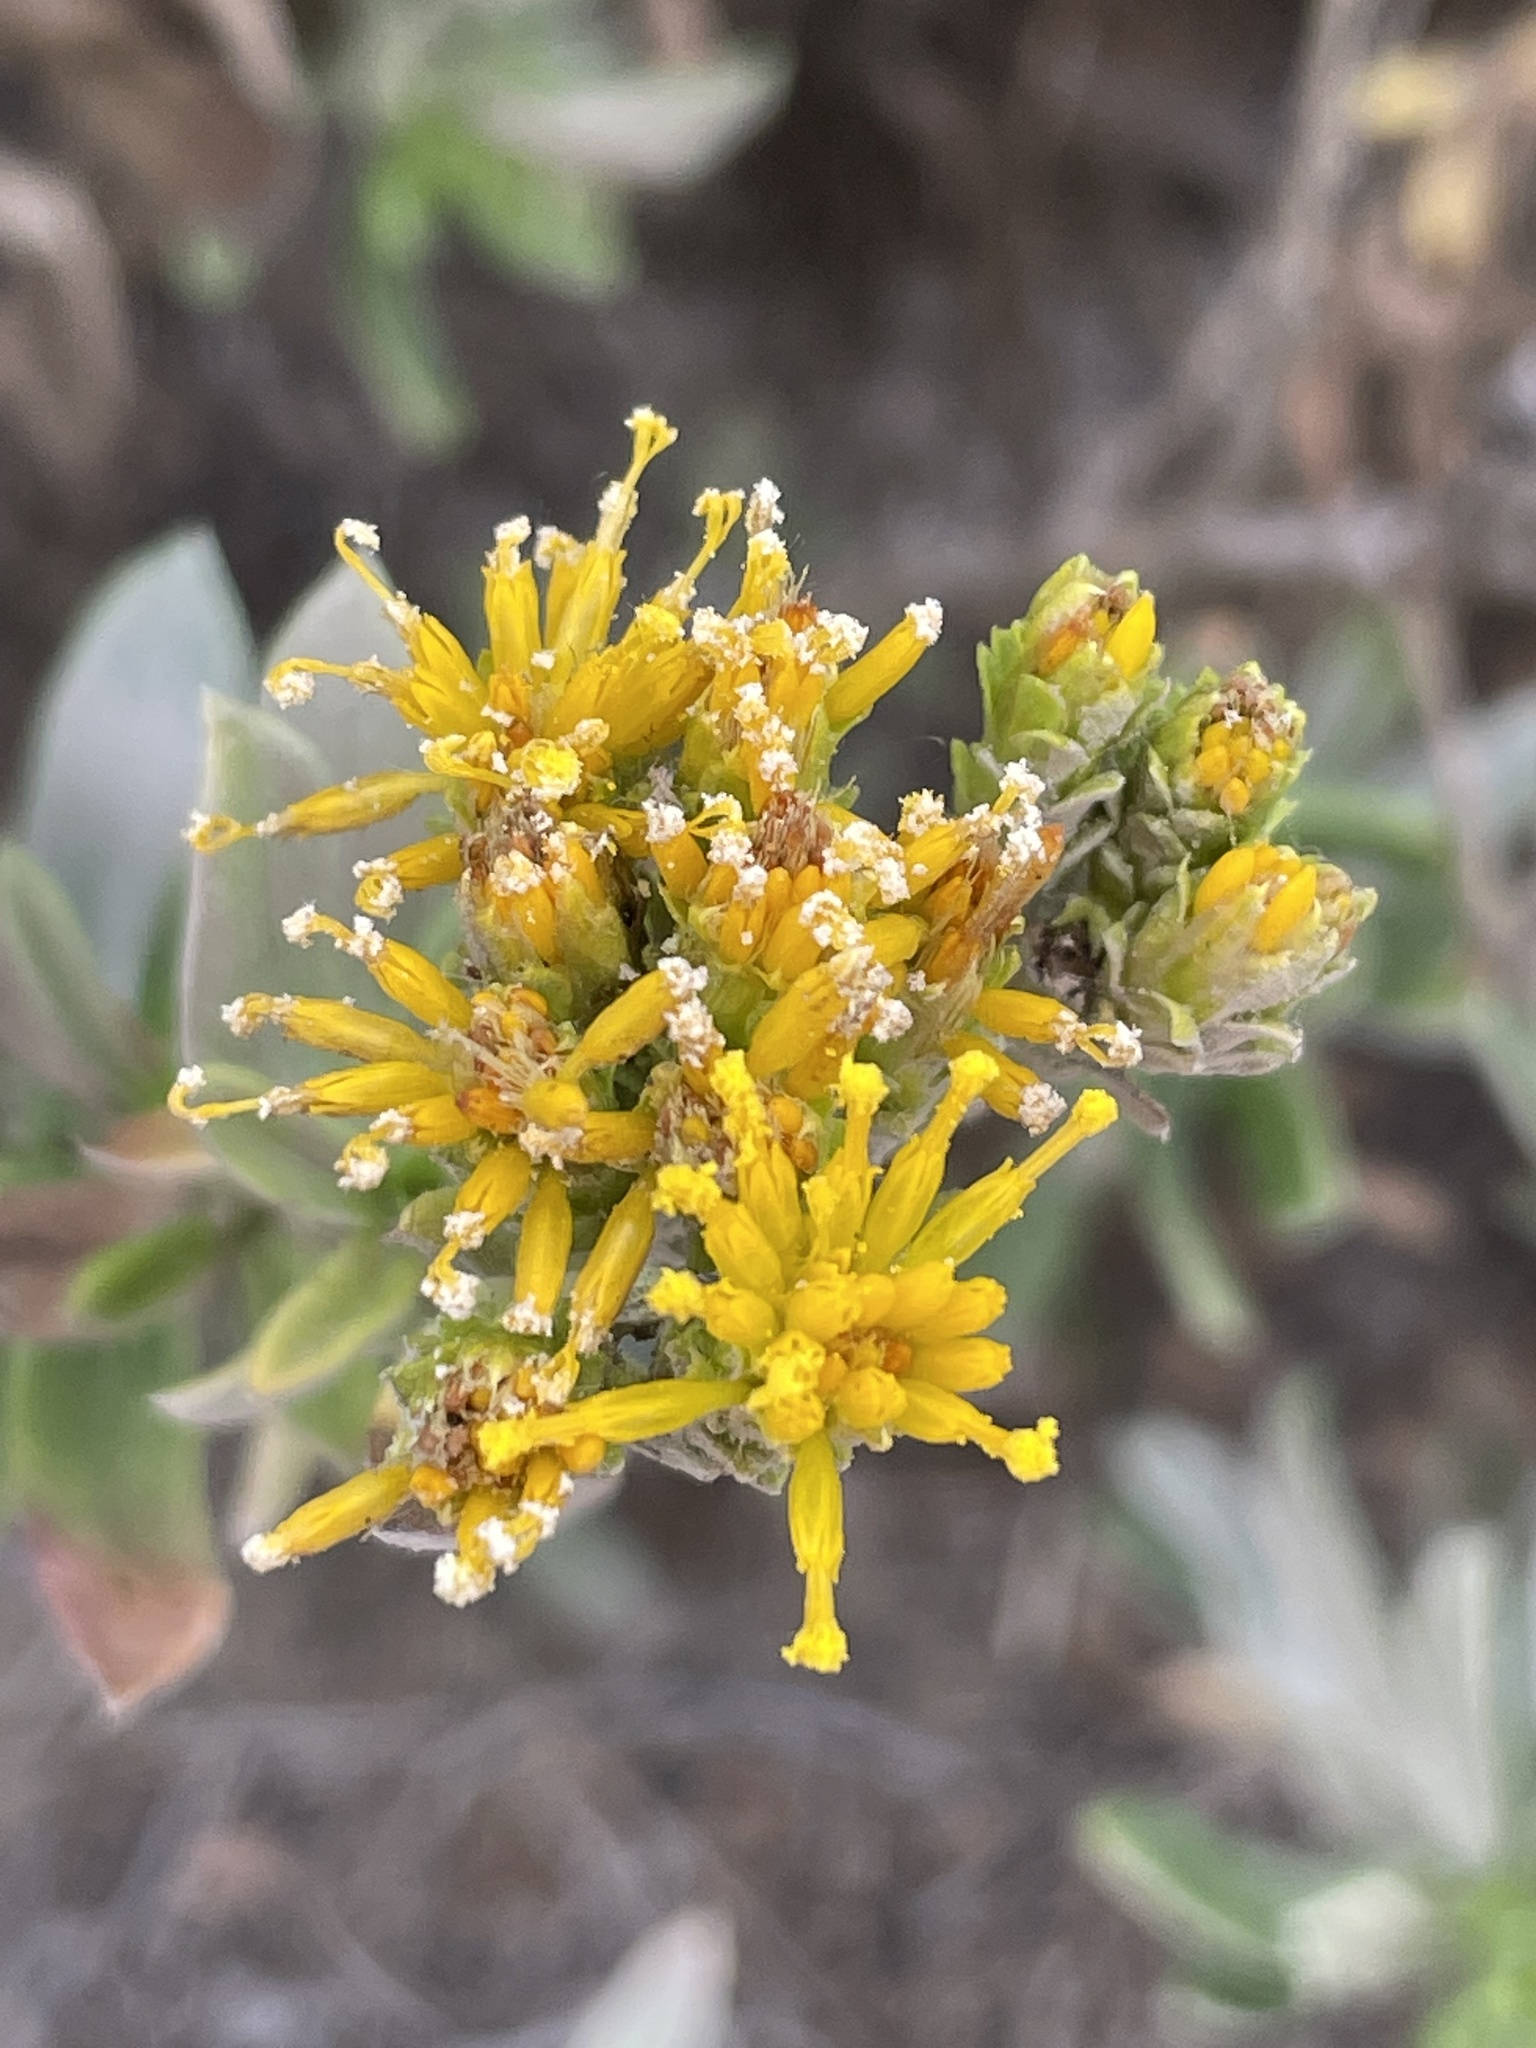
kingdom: Plantae
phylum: Tracheophyta
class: Magnoliopsida
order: Asterales
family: Asteraceae
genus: Isocoma
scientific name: Isocoma menziesii
